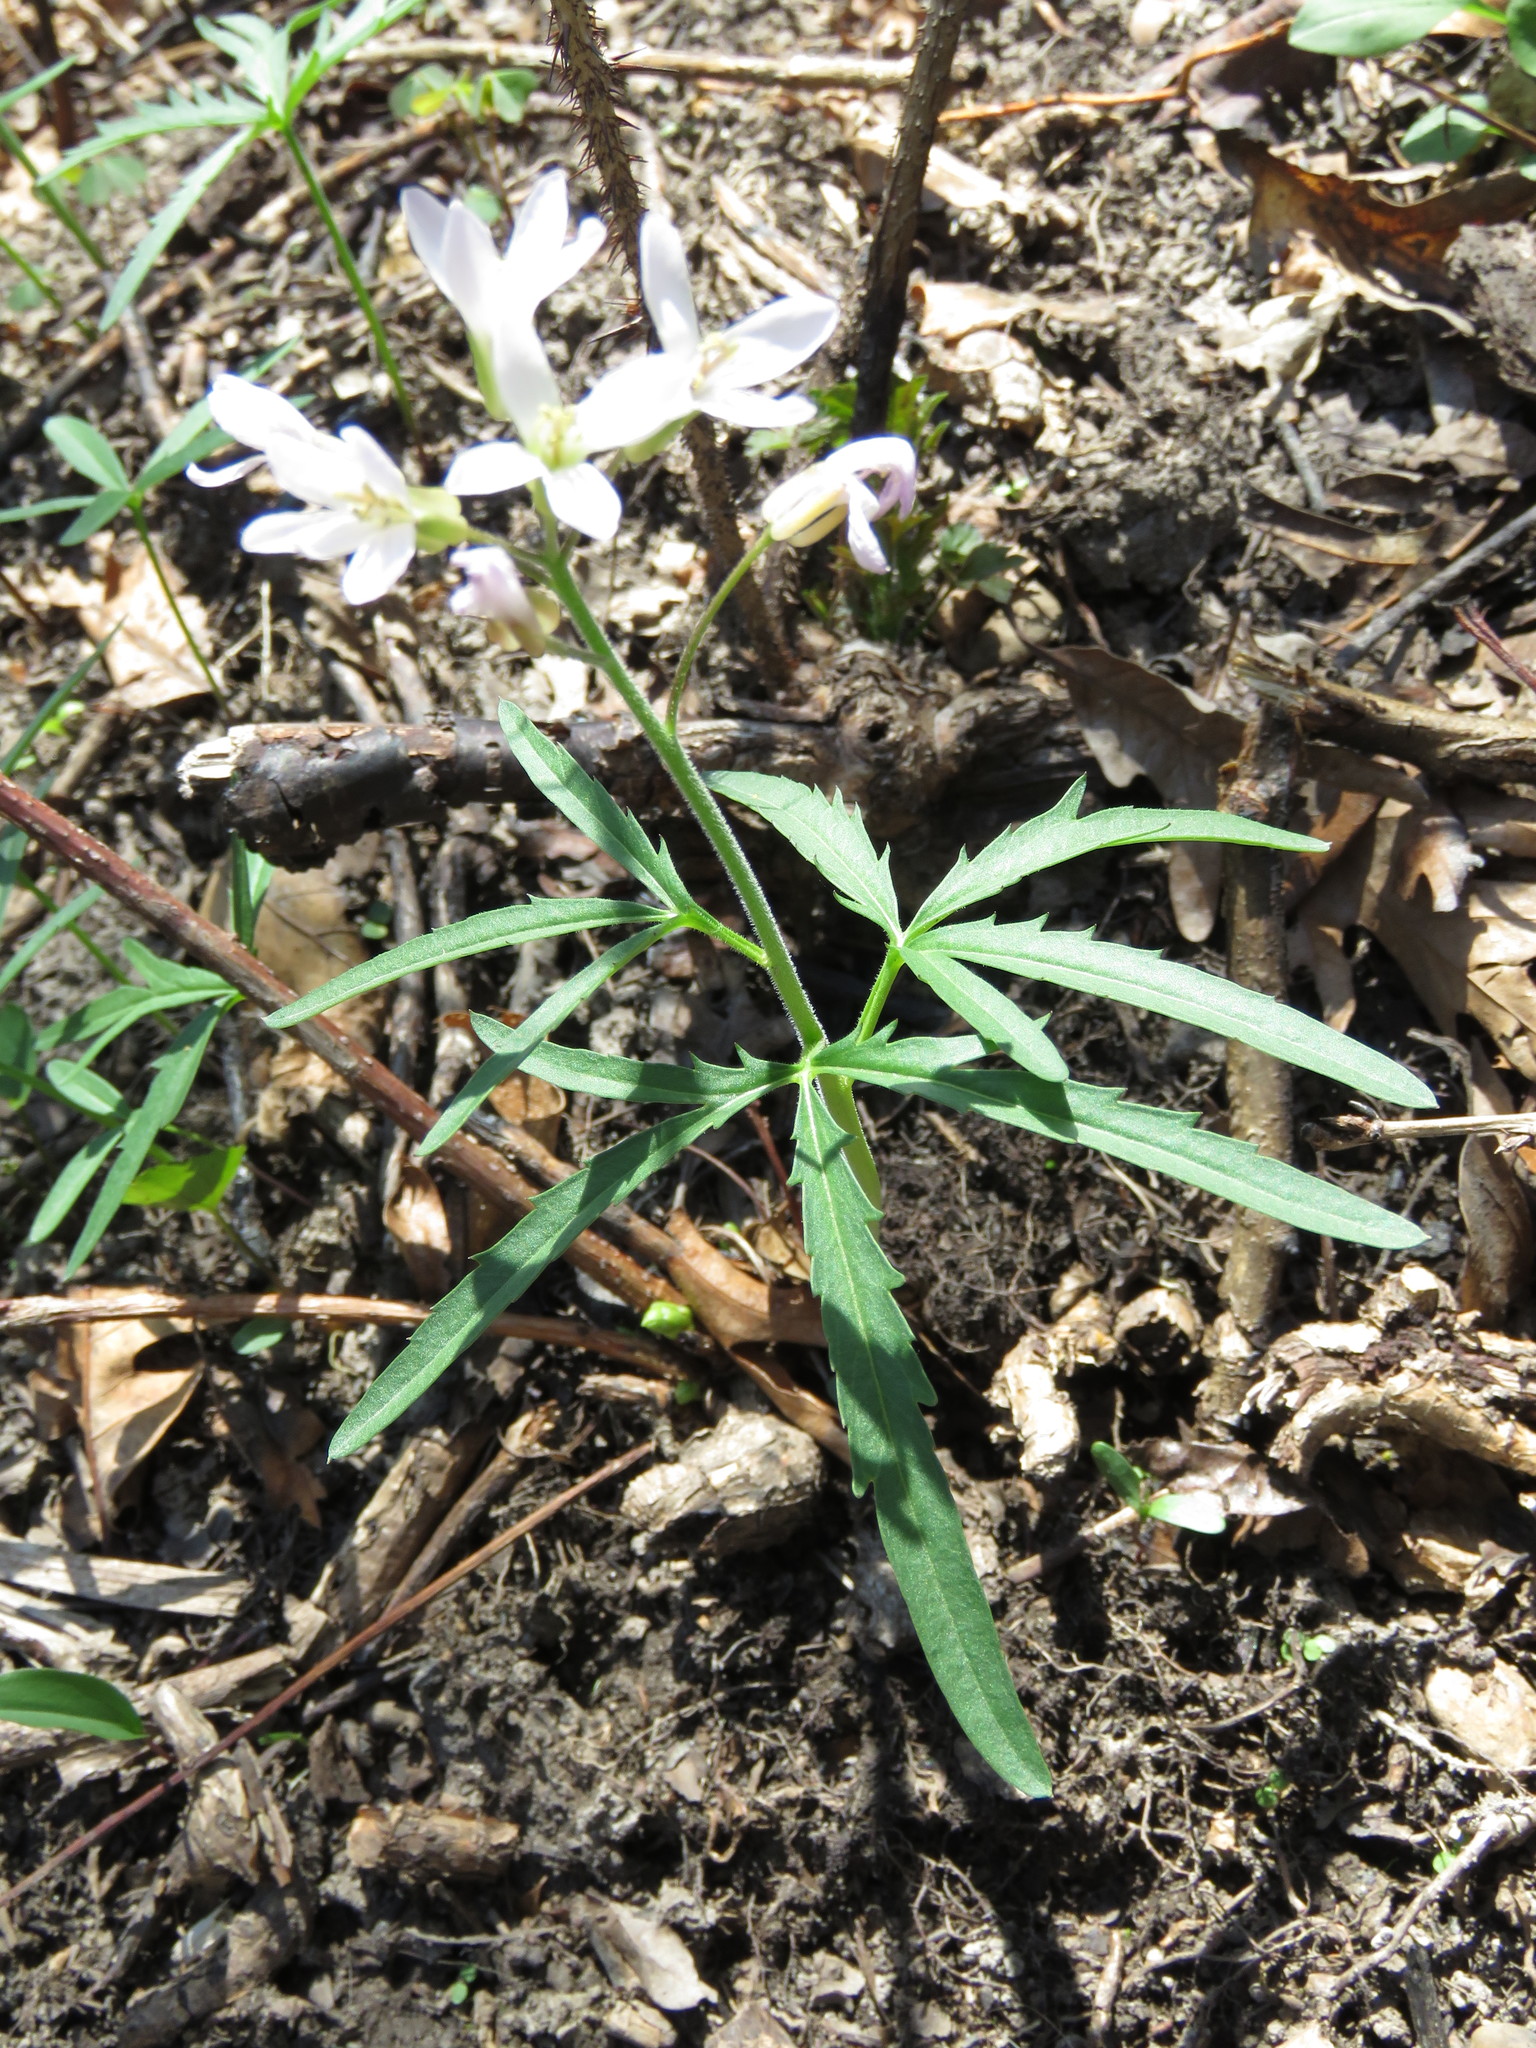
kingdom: Plantae
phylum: Tracheophyta
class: Magnoliopsida
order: Brassicales
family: Brassicaceae
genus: Cardamine
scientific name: Cardamine concatenata
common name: Cut-leaf toothcup
